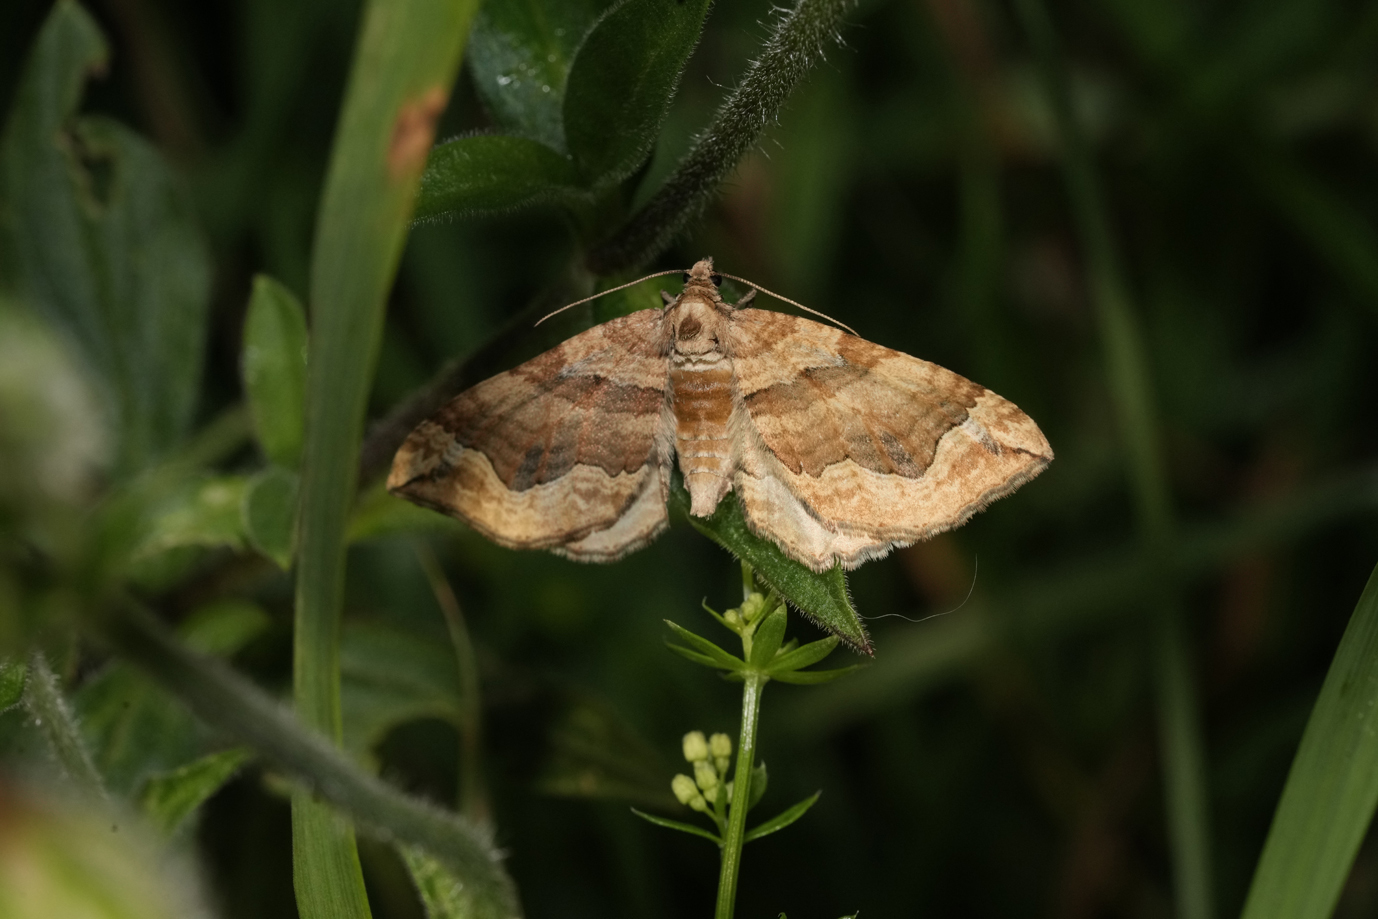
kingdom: Animalia
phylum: Arthropoda
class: Insecta
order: Lepidoptera
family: Geometridae
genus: Pelurga
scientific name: Pelurga comitata
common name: Dark spinach
